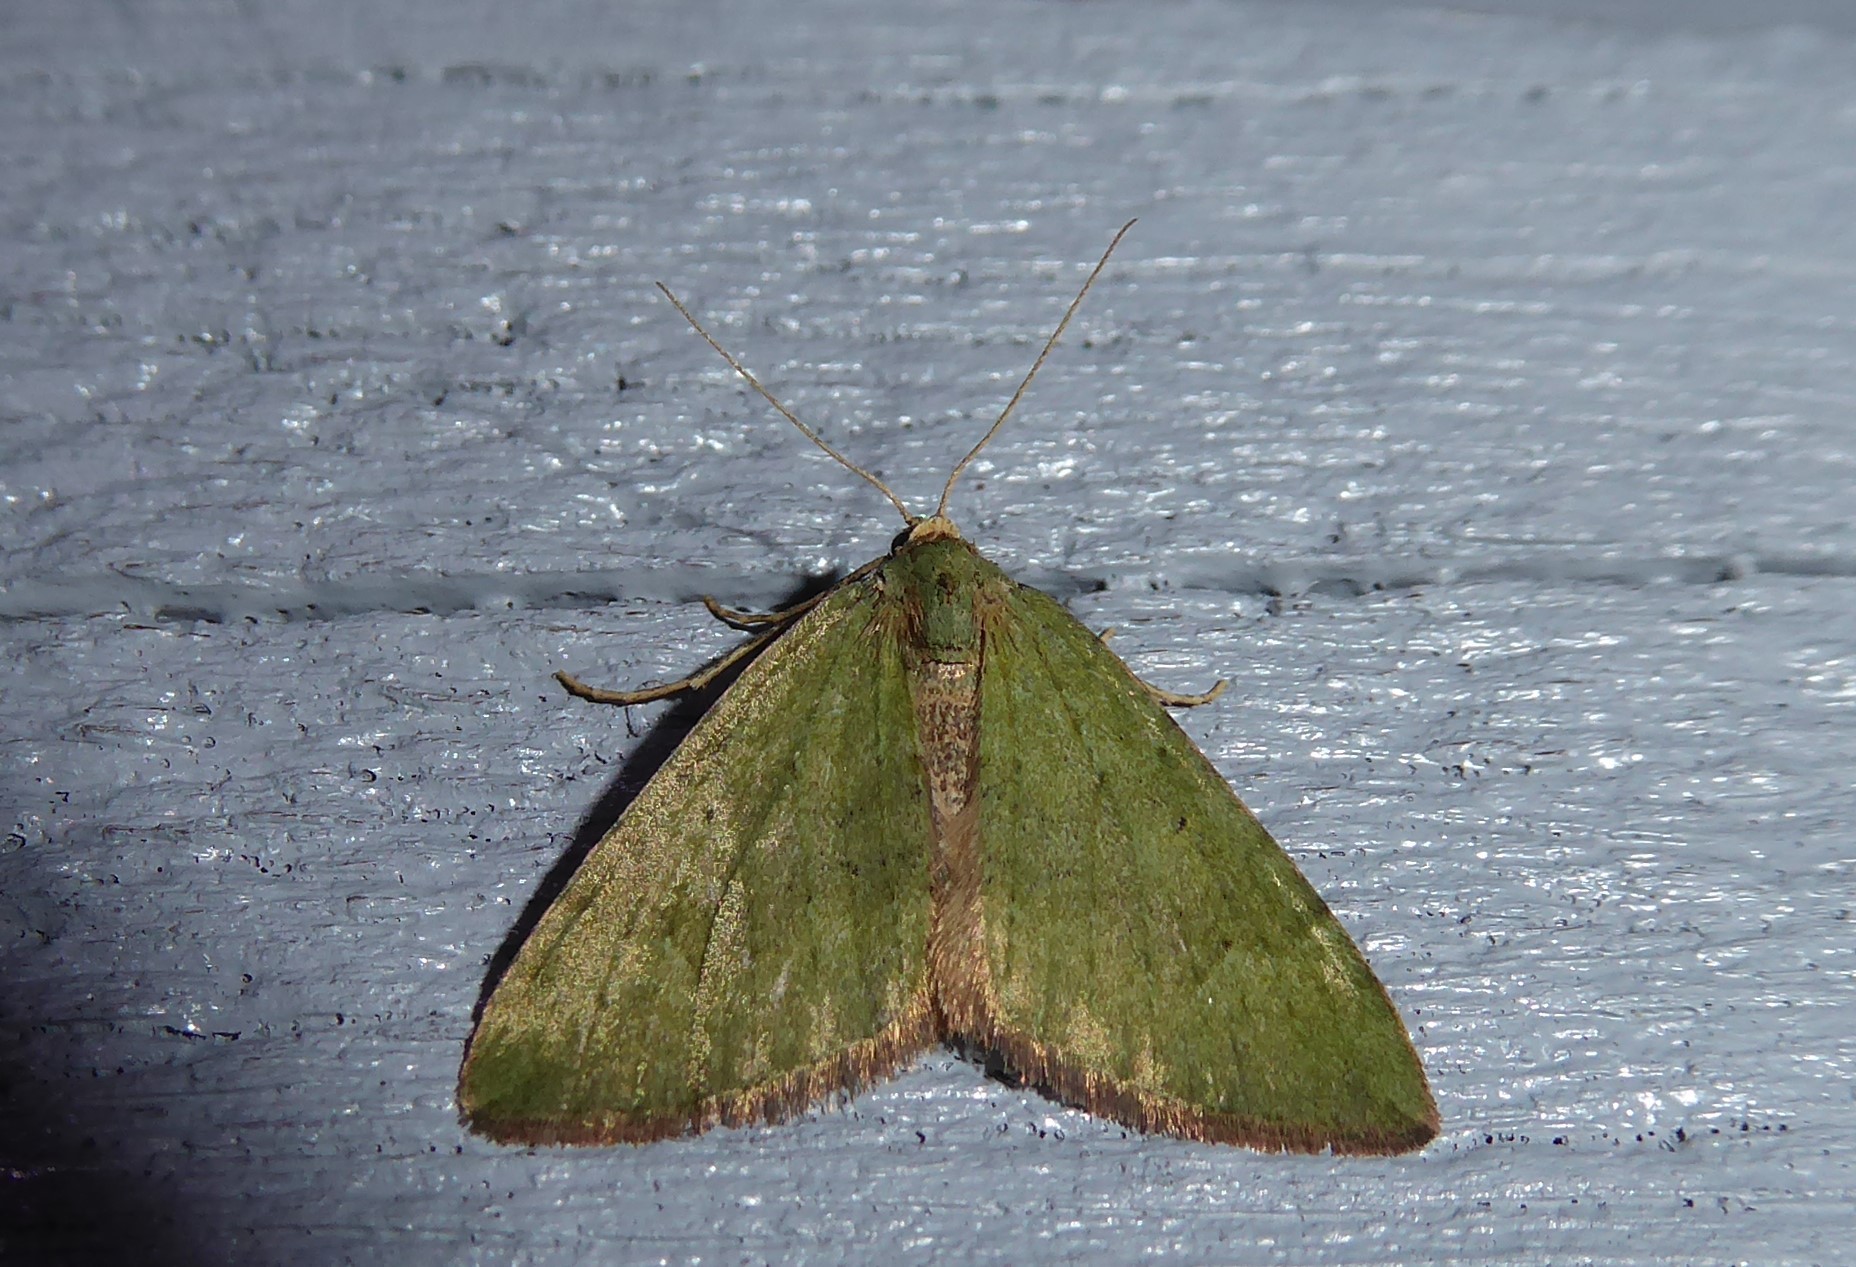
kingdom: Animalia
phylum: Arthropoda
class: Insecta
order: Lepidoptera
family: Geometridae
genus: Epyaxa
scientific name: Epyaxa rosearia
